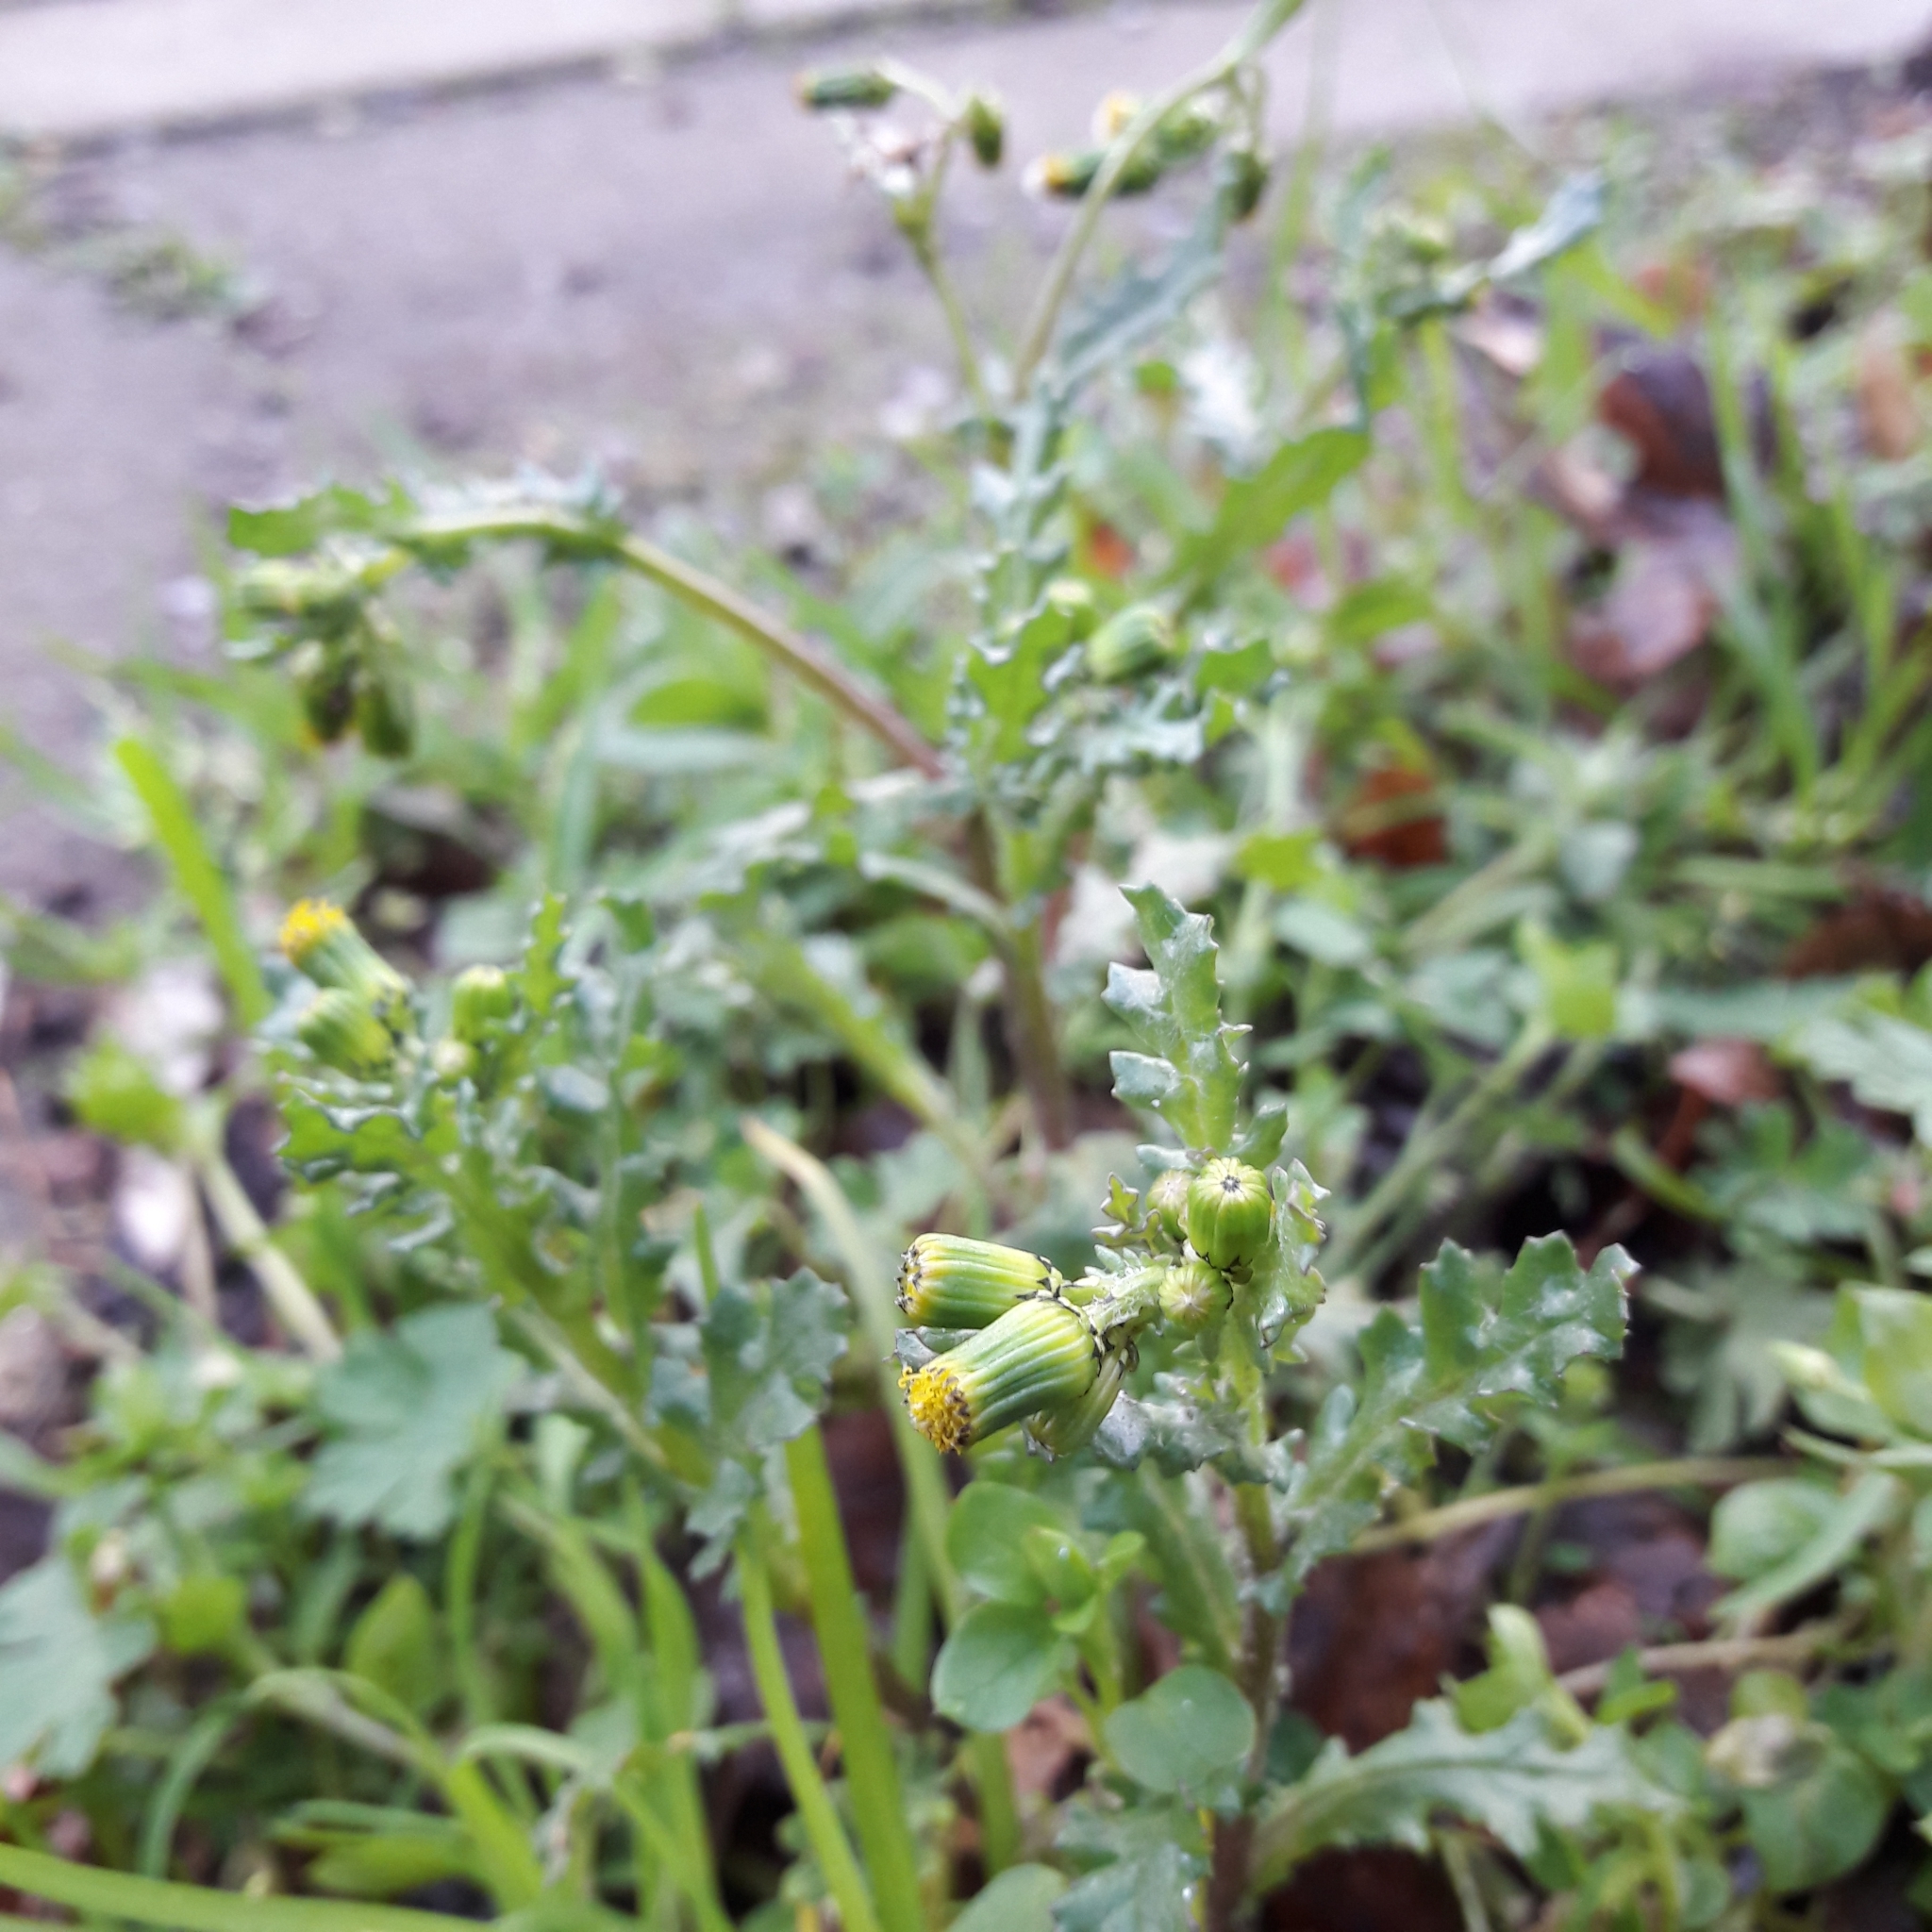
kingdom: Plantae
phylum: Tracheophyta
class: Magnoliopsida
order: Asterales
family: Asteraceae
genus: Senecio
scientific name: Senecio vulgaris
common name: Old-man-in-the-spring
